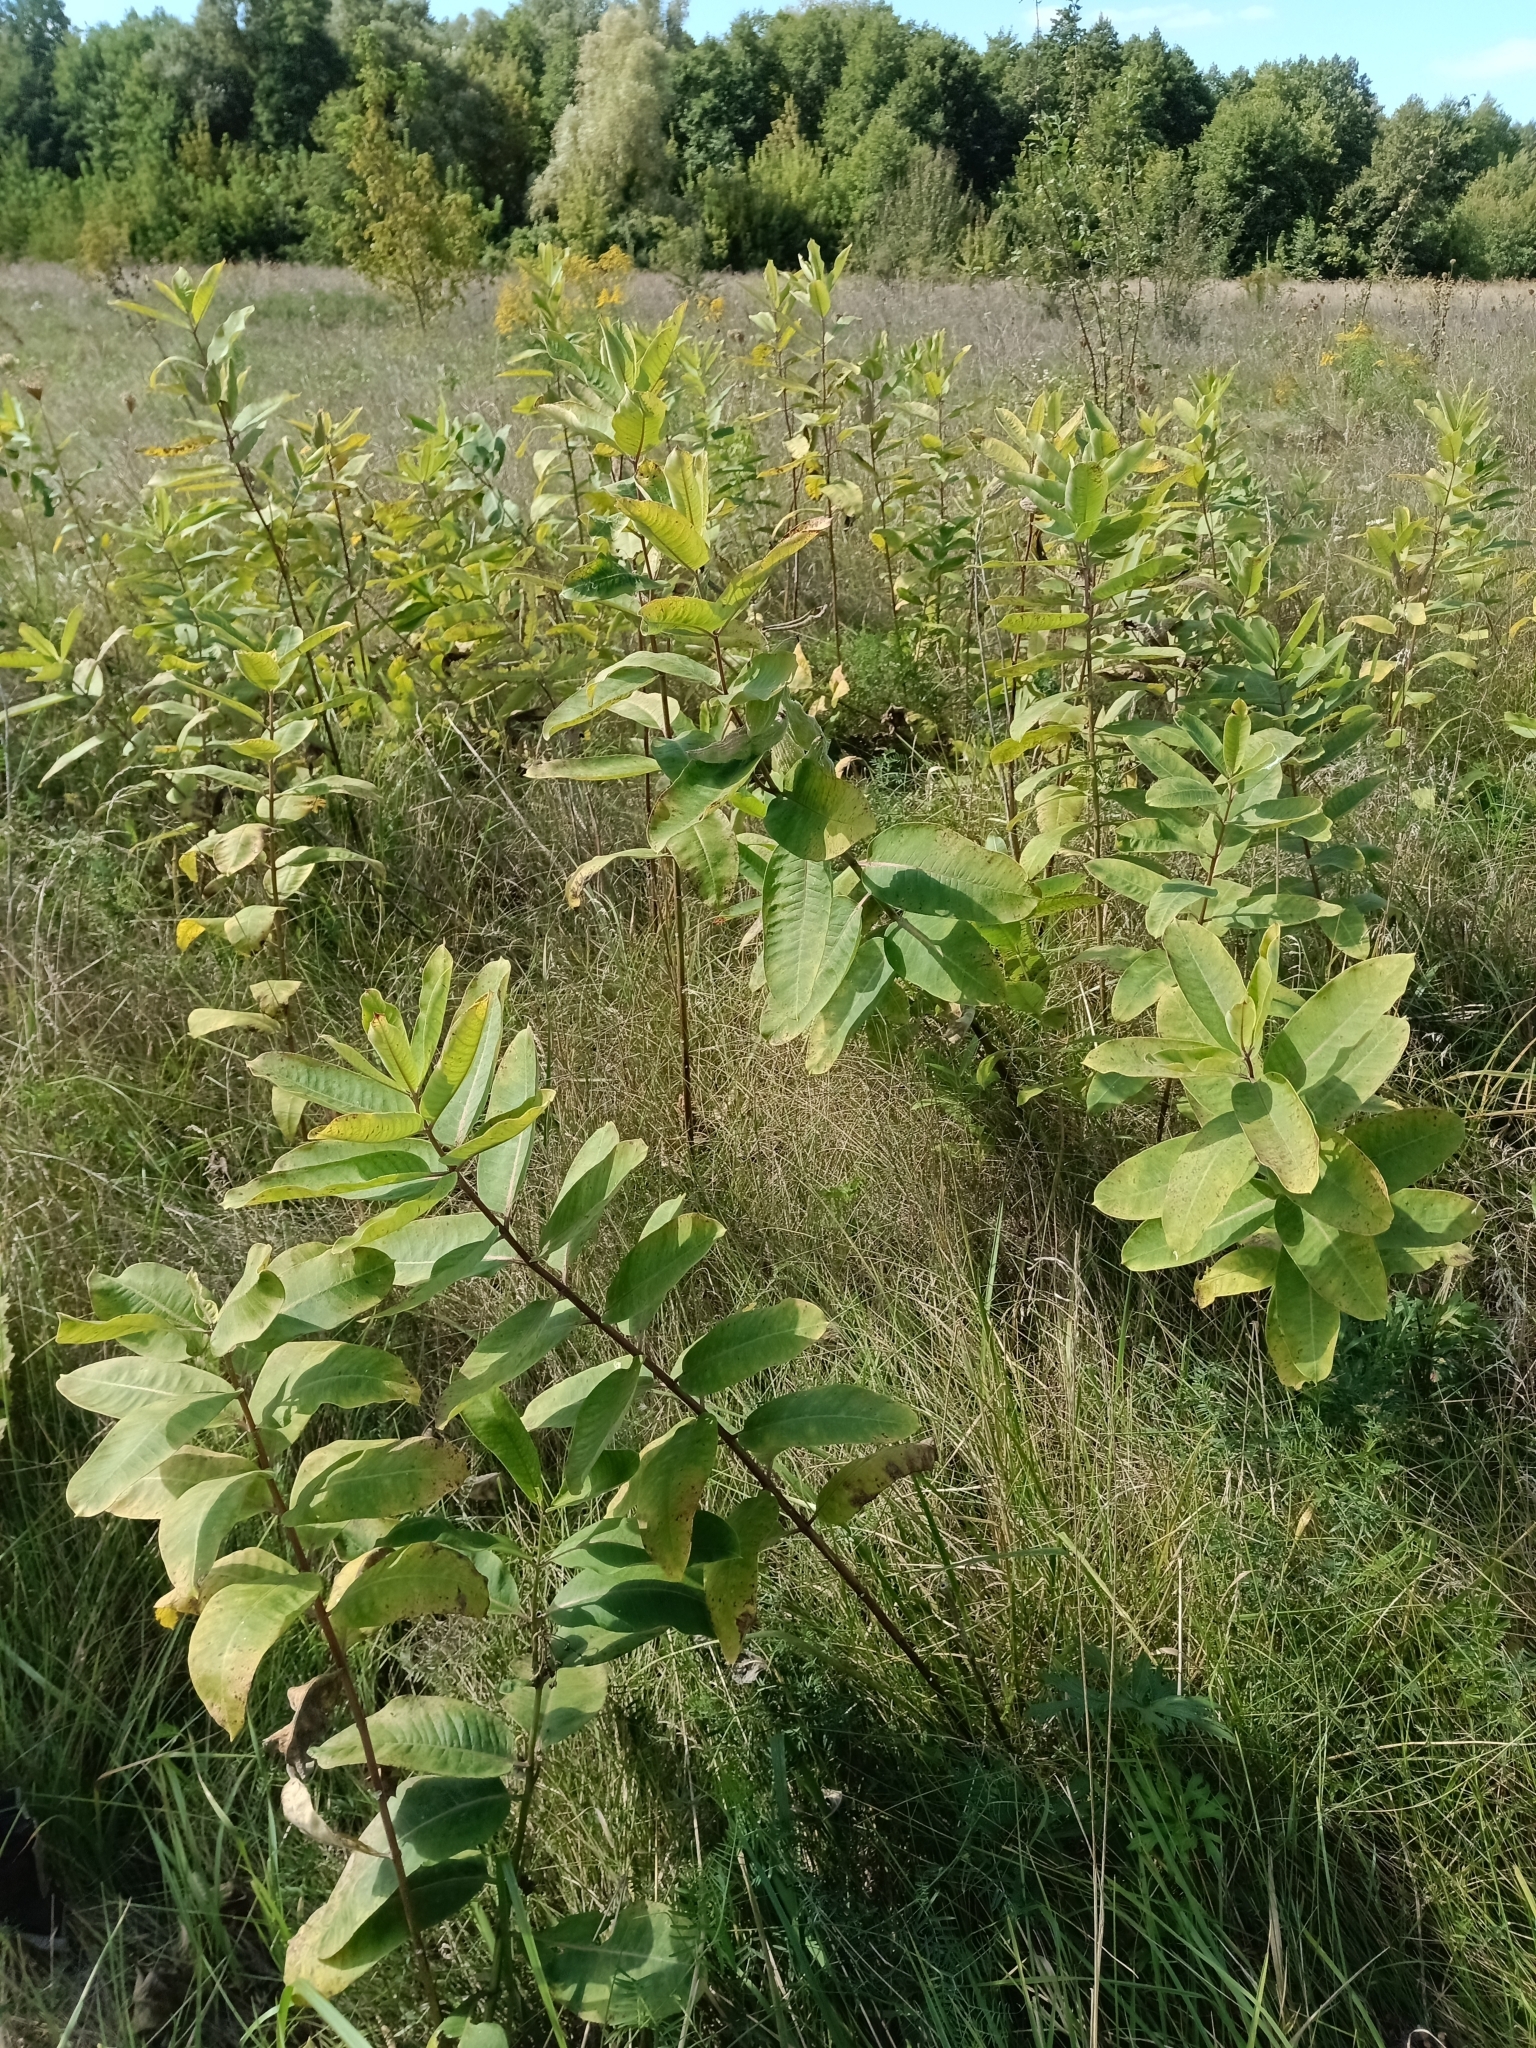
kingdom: Plantae
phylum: Tracheophyta
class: Magnoliopsida
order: Gentianales
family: Apocynaceae
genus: Asclepias
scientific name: Asclepias syriaca
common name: Common milkweed
